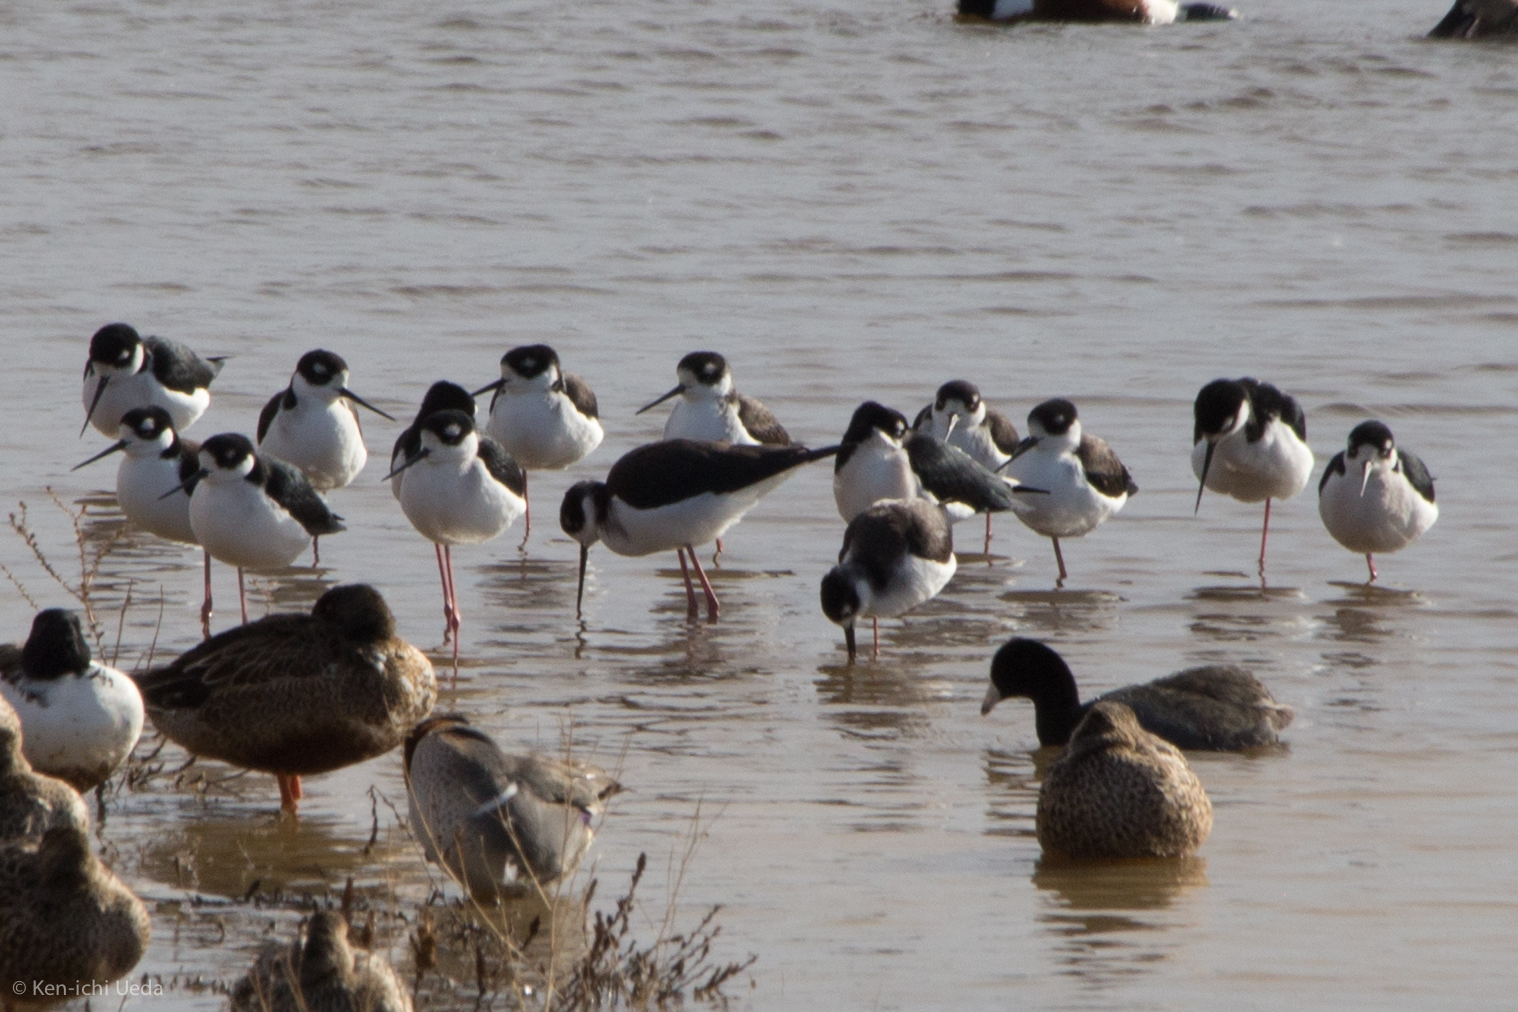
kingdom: Animalia
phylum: Chordata
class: Aves
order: Charadriiformes
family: Recurvirostridae
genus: Himantopus
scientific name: Himantopus mexicanus
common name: Black-necked stilt
